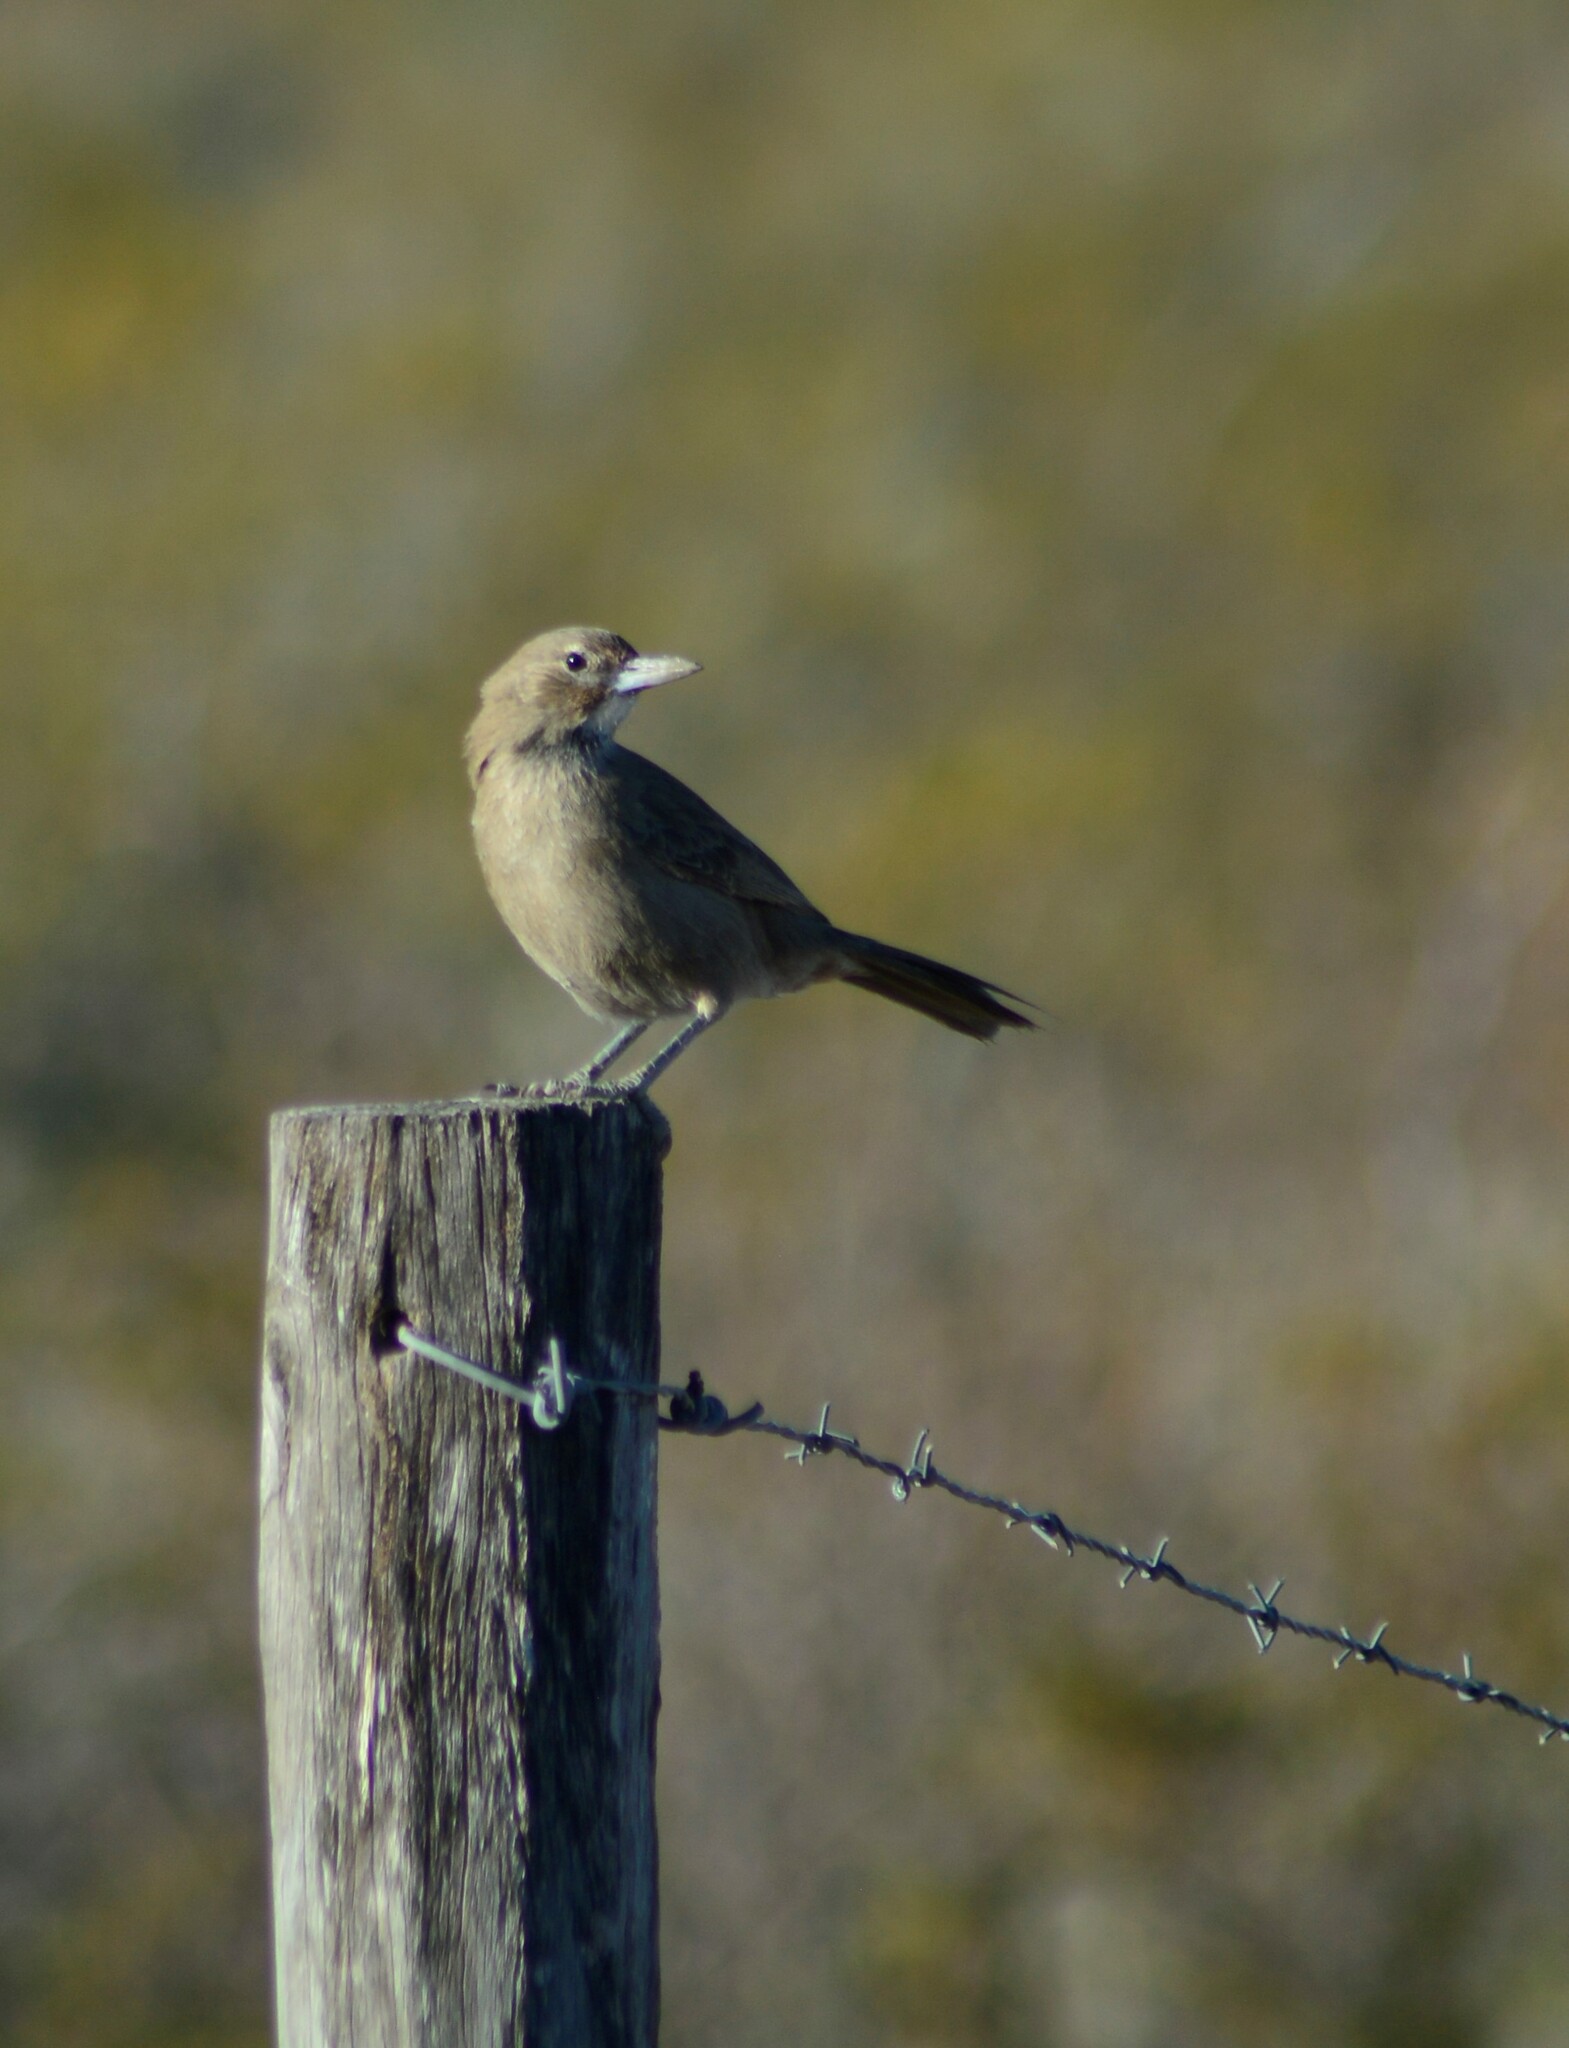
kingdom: Animalia
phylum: Chordata
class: Aves
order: Passeriformes
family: Furnariidae
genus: Pseudoseisura
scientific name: Pseudoseisura gutturalis
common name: White-throated cacholote
